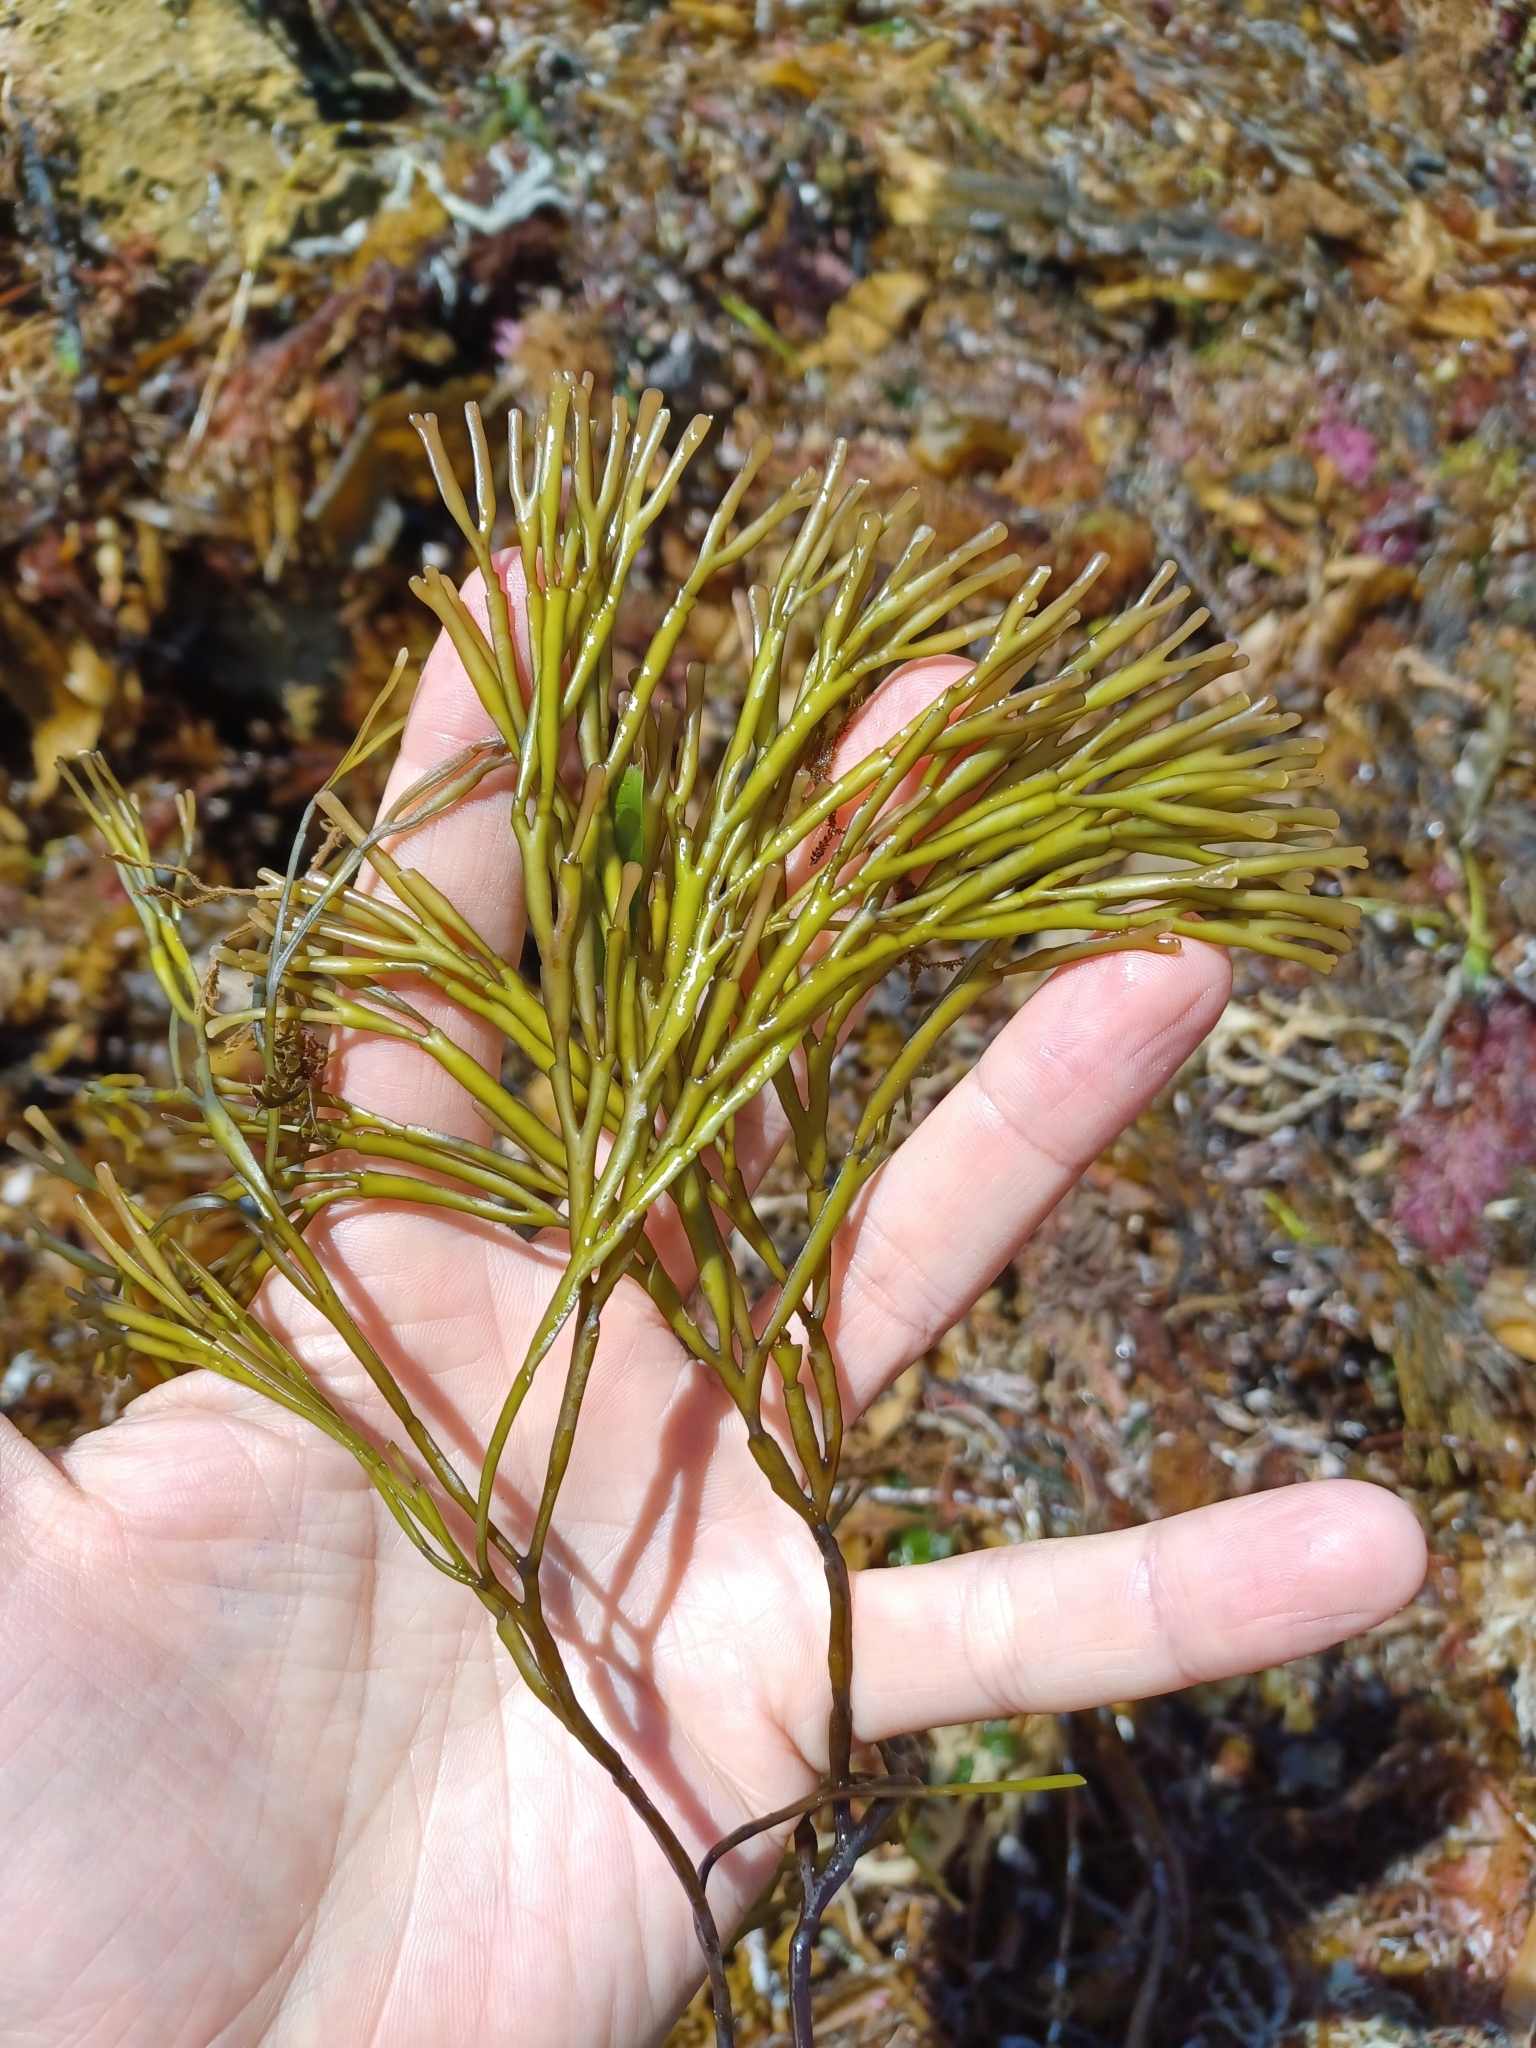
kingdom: Plantae
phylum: Rhodophyta
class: Florideophyceae
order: Gracilariales
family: Gracilariaceae
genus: Melanthalia
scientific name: Melanthalia abscissa
